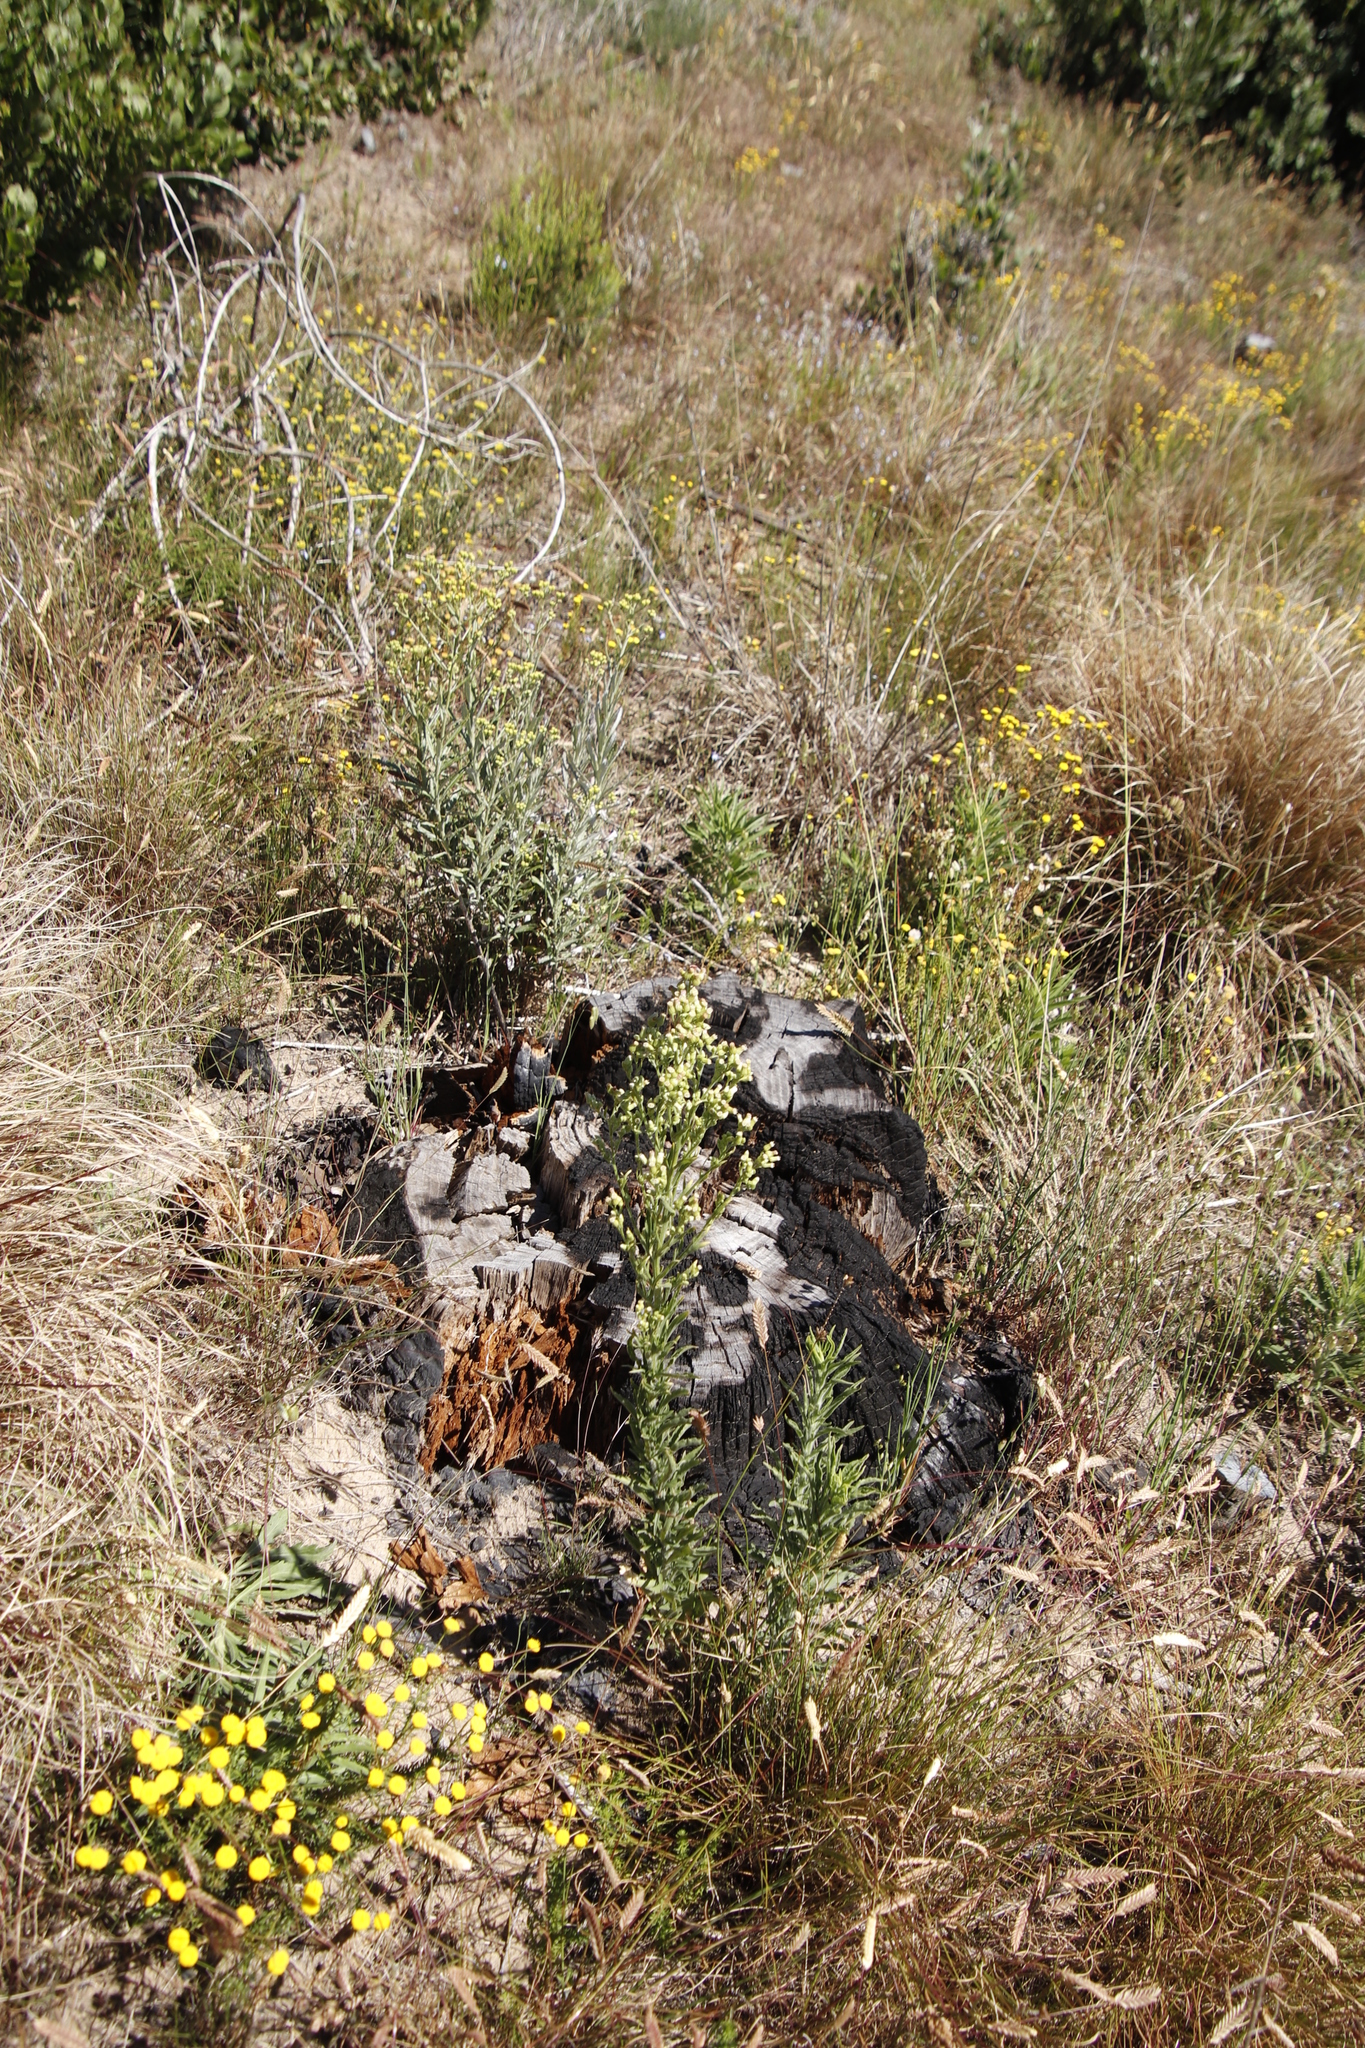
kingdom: Plantae
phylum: Tracheophyta
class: Magnoliopsida
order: Asterales
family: Asteraceae
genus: Erigeron
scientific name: Erigeron sumatrensis
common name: Daisy
